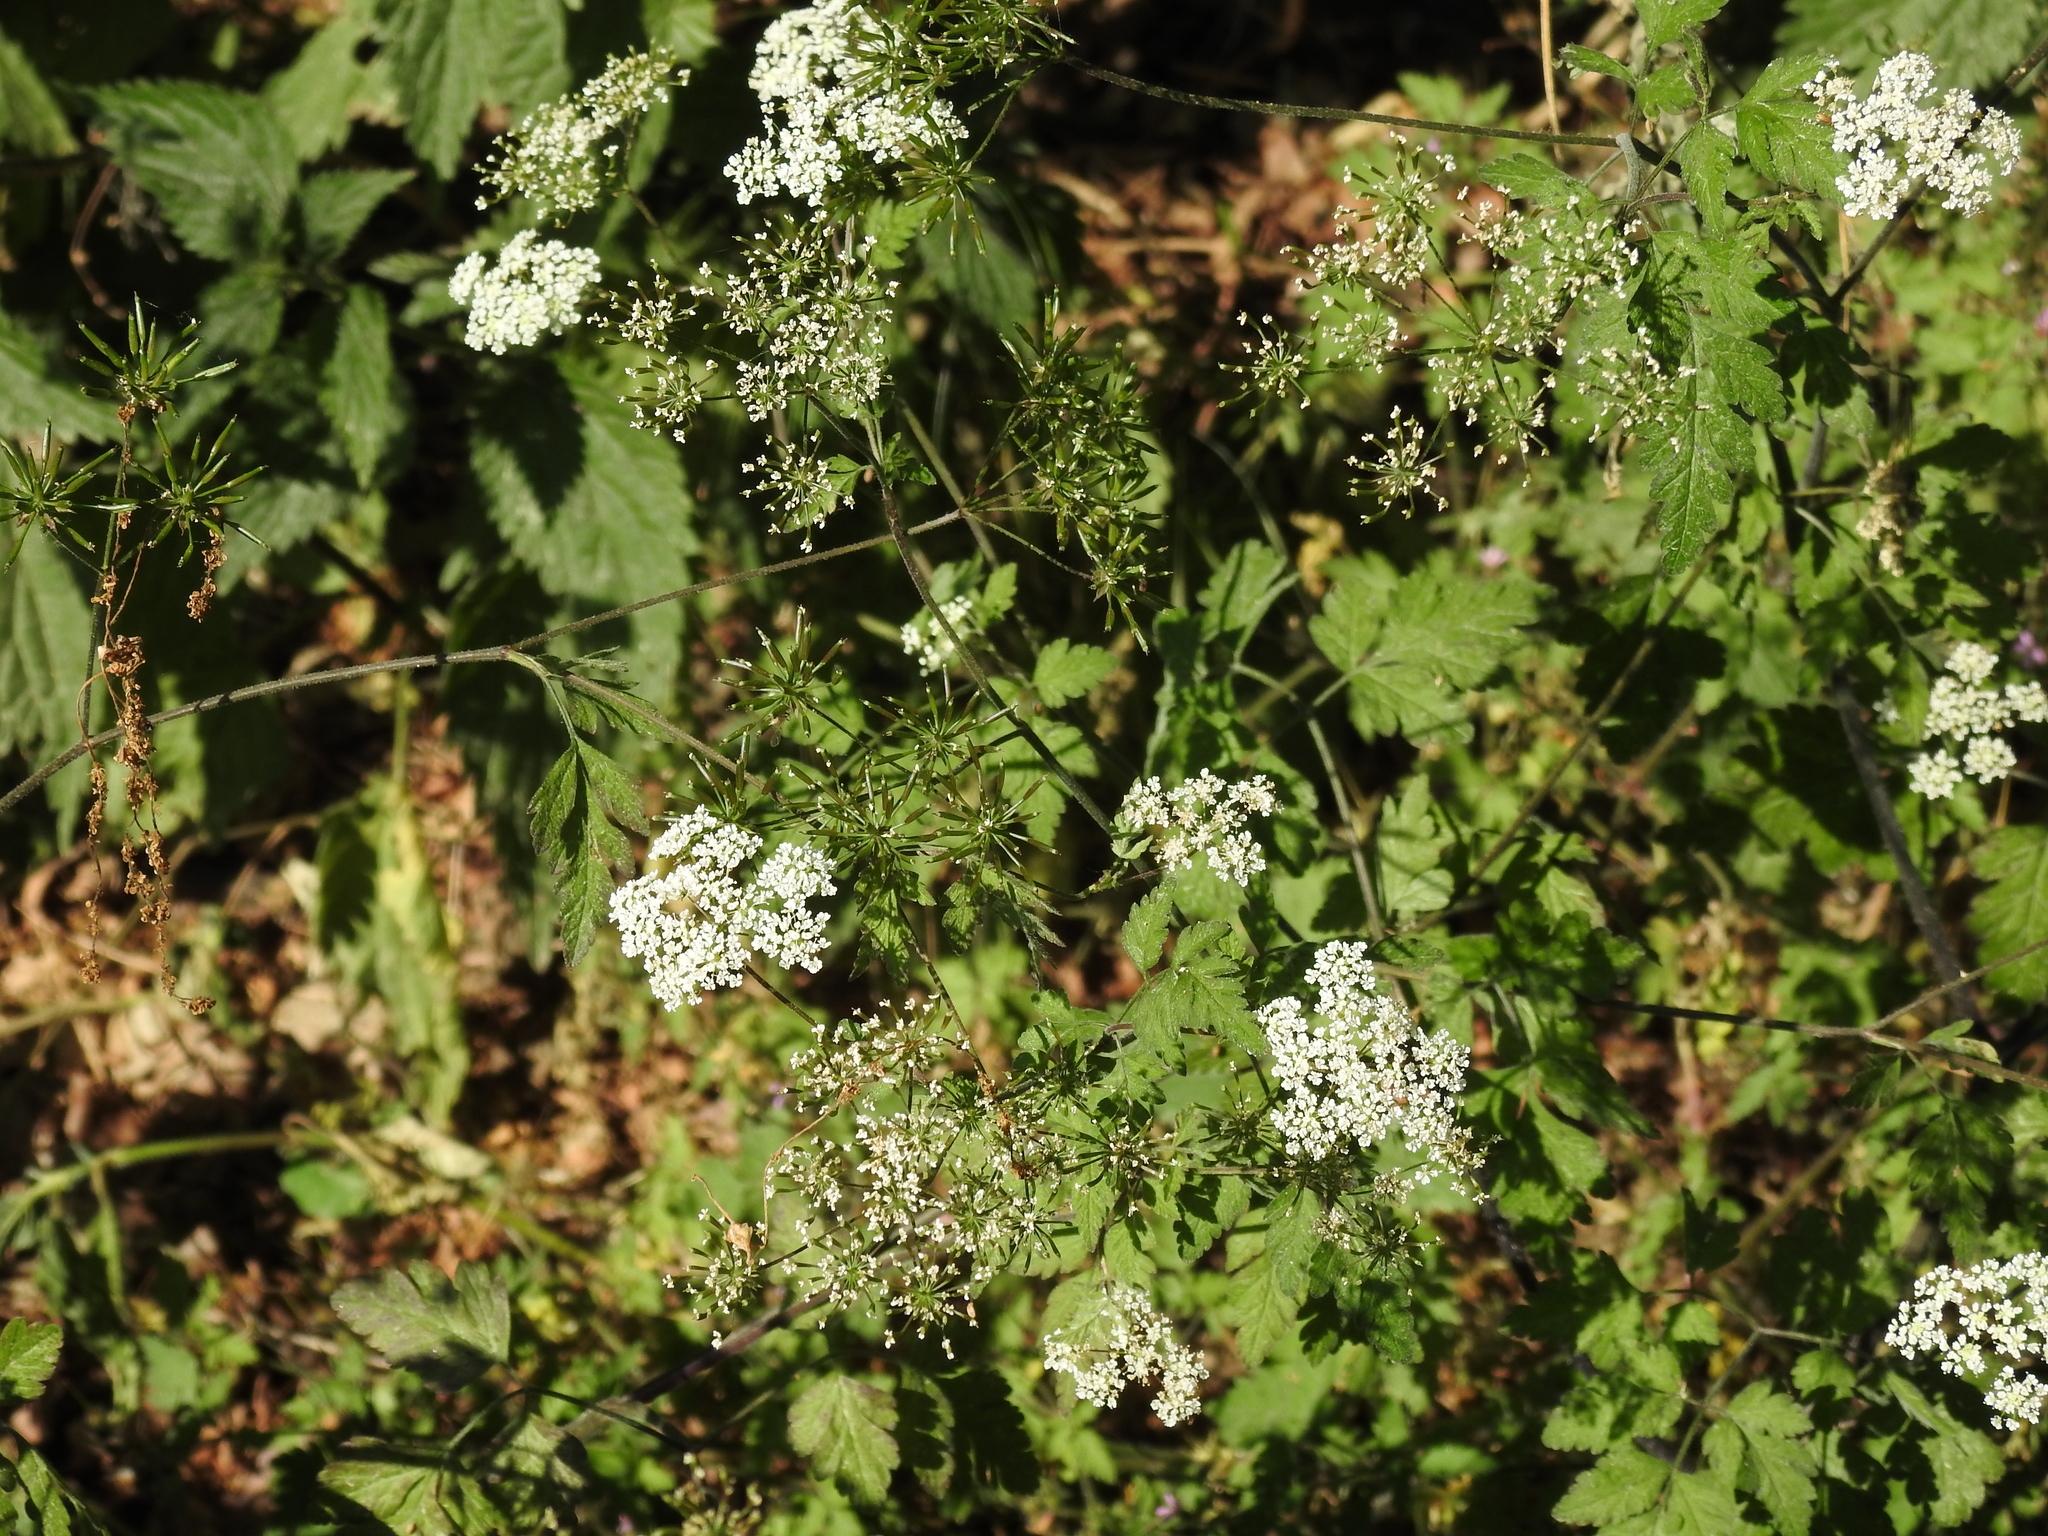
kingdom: Plantae
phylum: Tracheophyta
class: Magnoliopsida
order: Apiales
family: Apiaceae
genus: Chaerophyllum
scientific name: Chaerophyllum temulum
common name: Rough chervil
